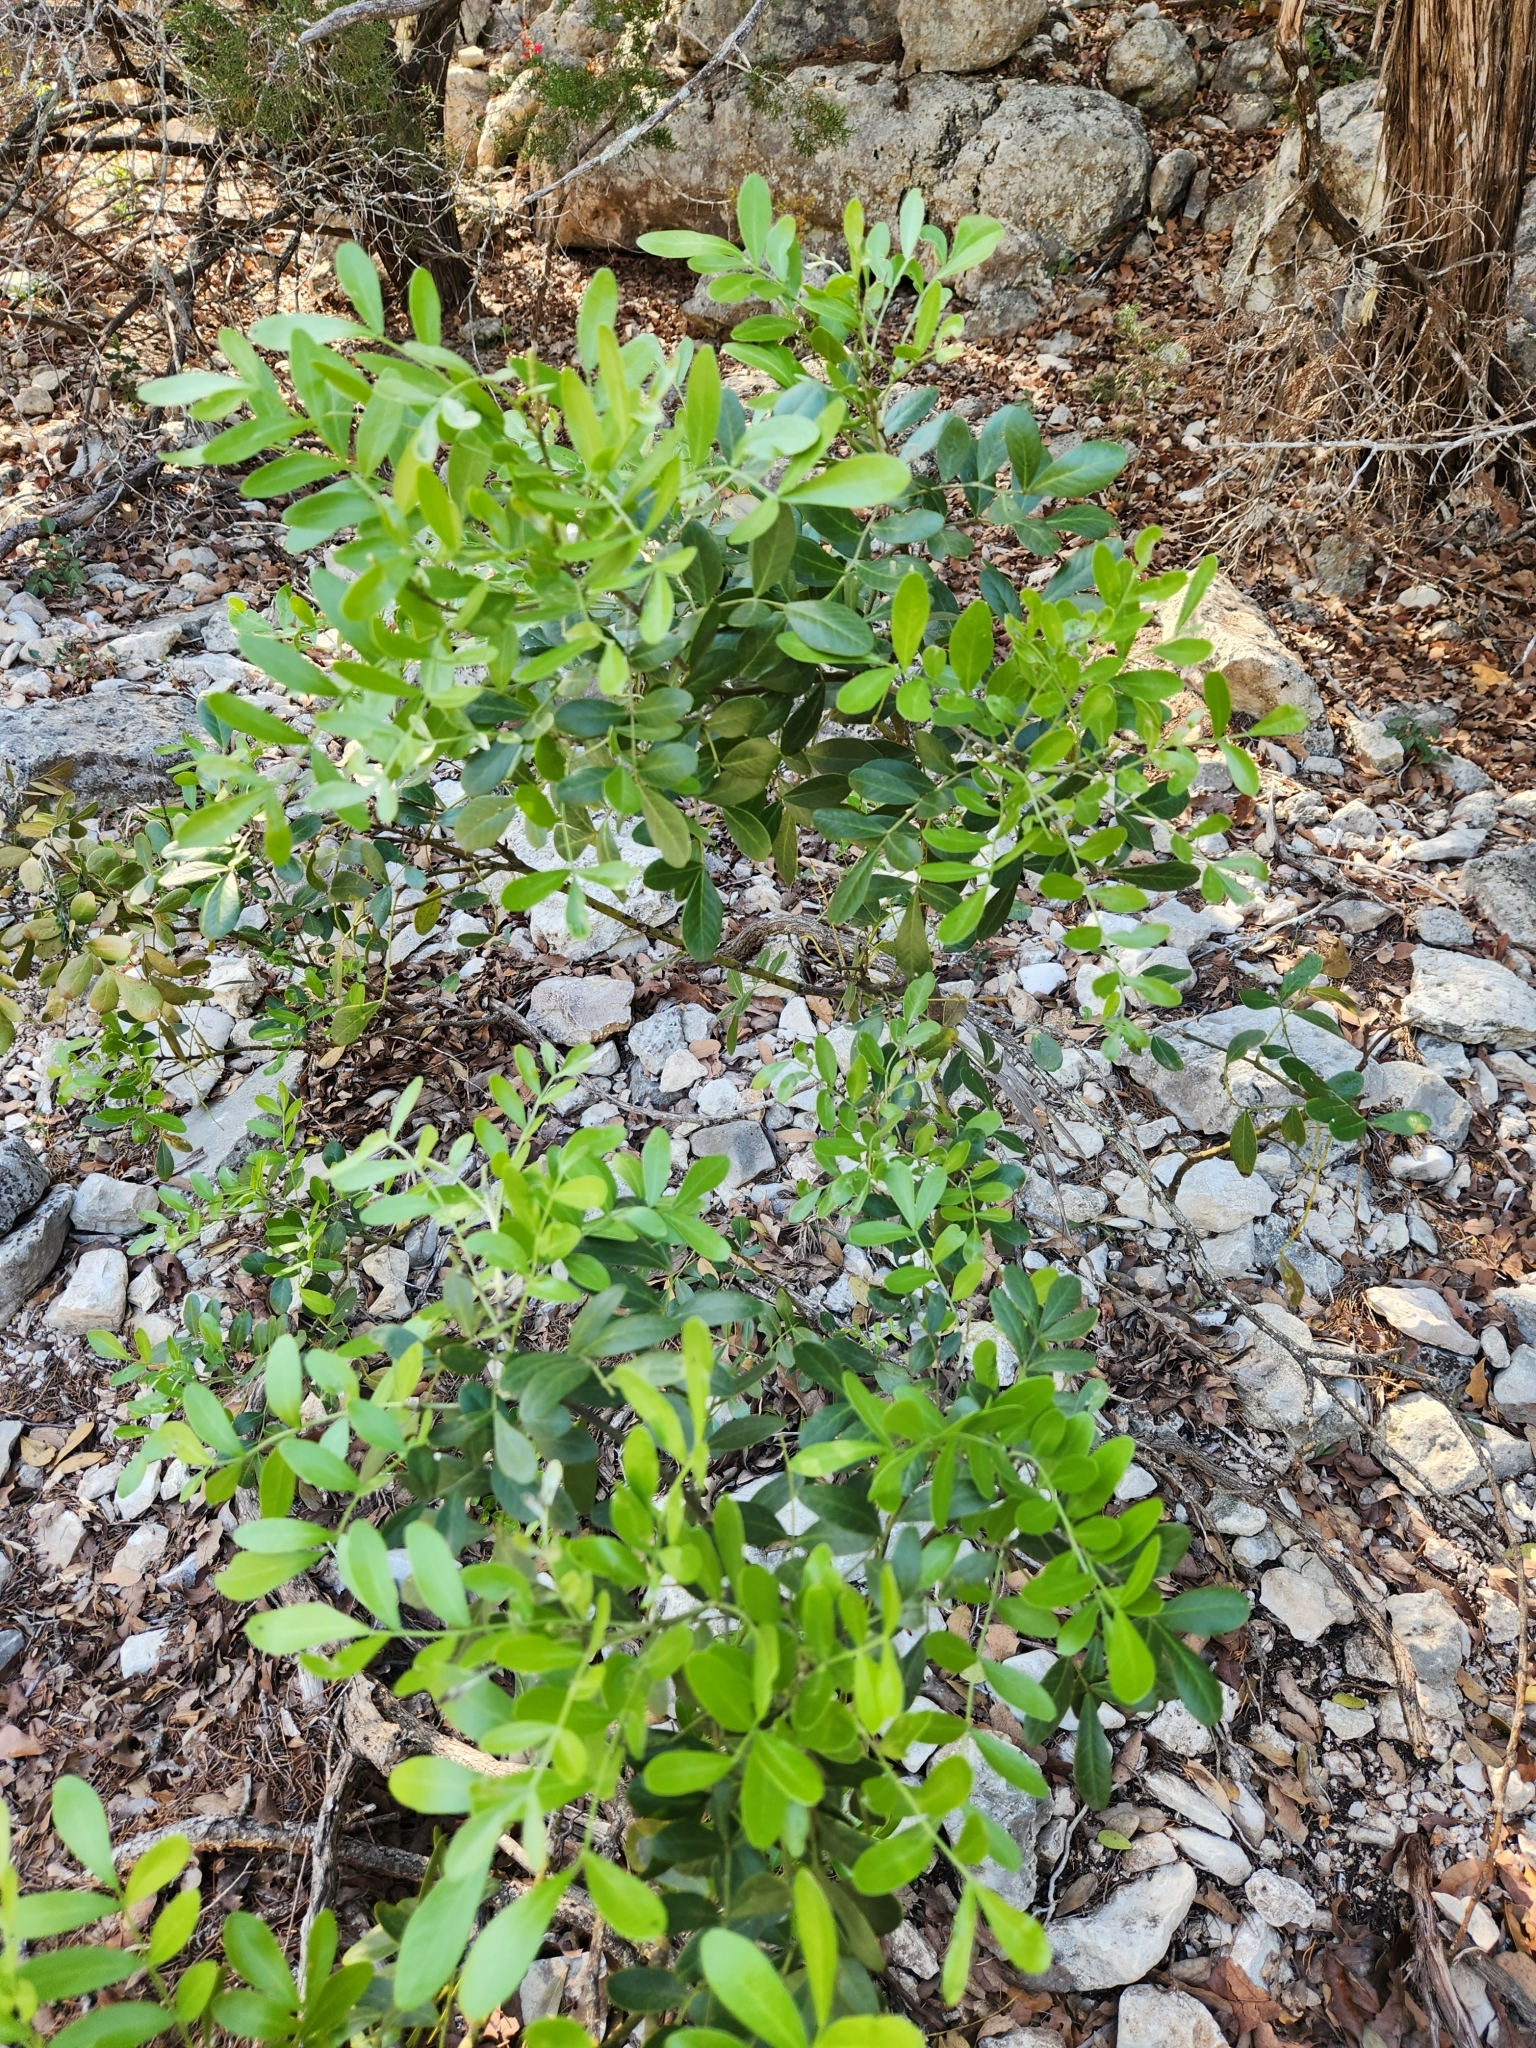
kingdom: Plantae
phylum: Tracheophyta
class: Magnoliopsida
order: Fabales
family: Fabaceae
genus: Dermatophyllum
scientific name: Dermatophyllum secundiflorum
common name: Texas-mountain-laurel
